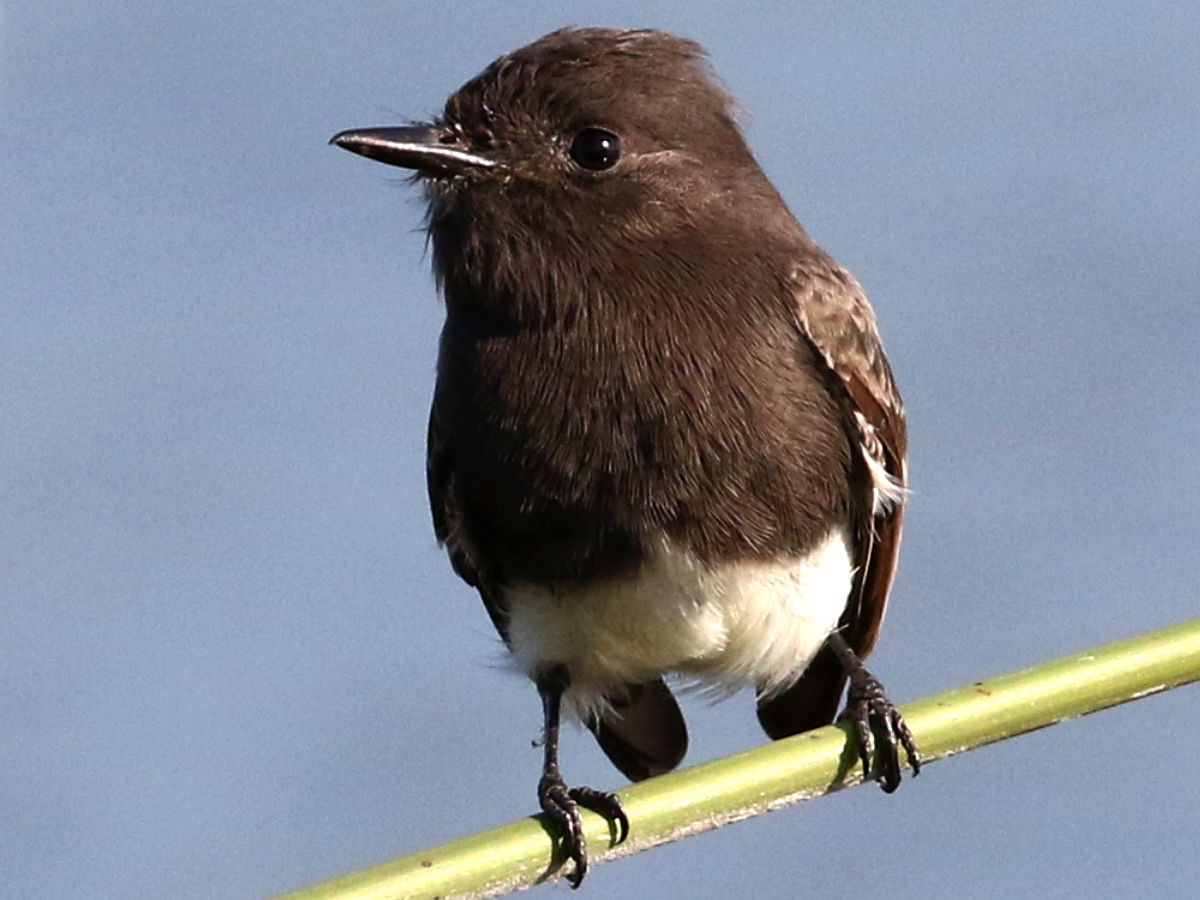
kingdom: Animalia
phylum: Chordata
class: Aves
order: Passeriformes
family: Tyrannidae
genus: Sayornis
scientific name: Sayornis nigricans
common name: Black phoebe
